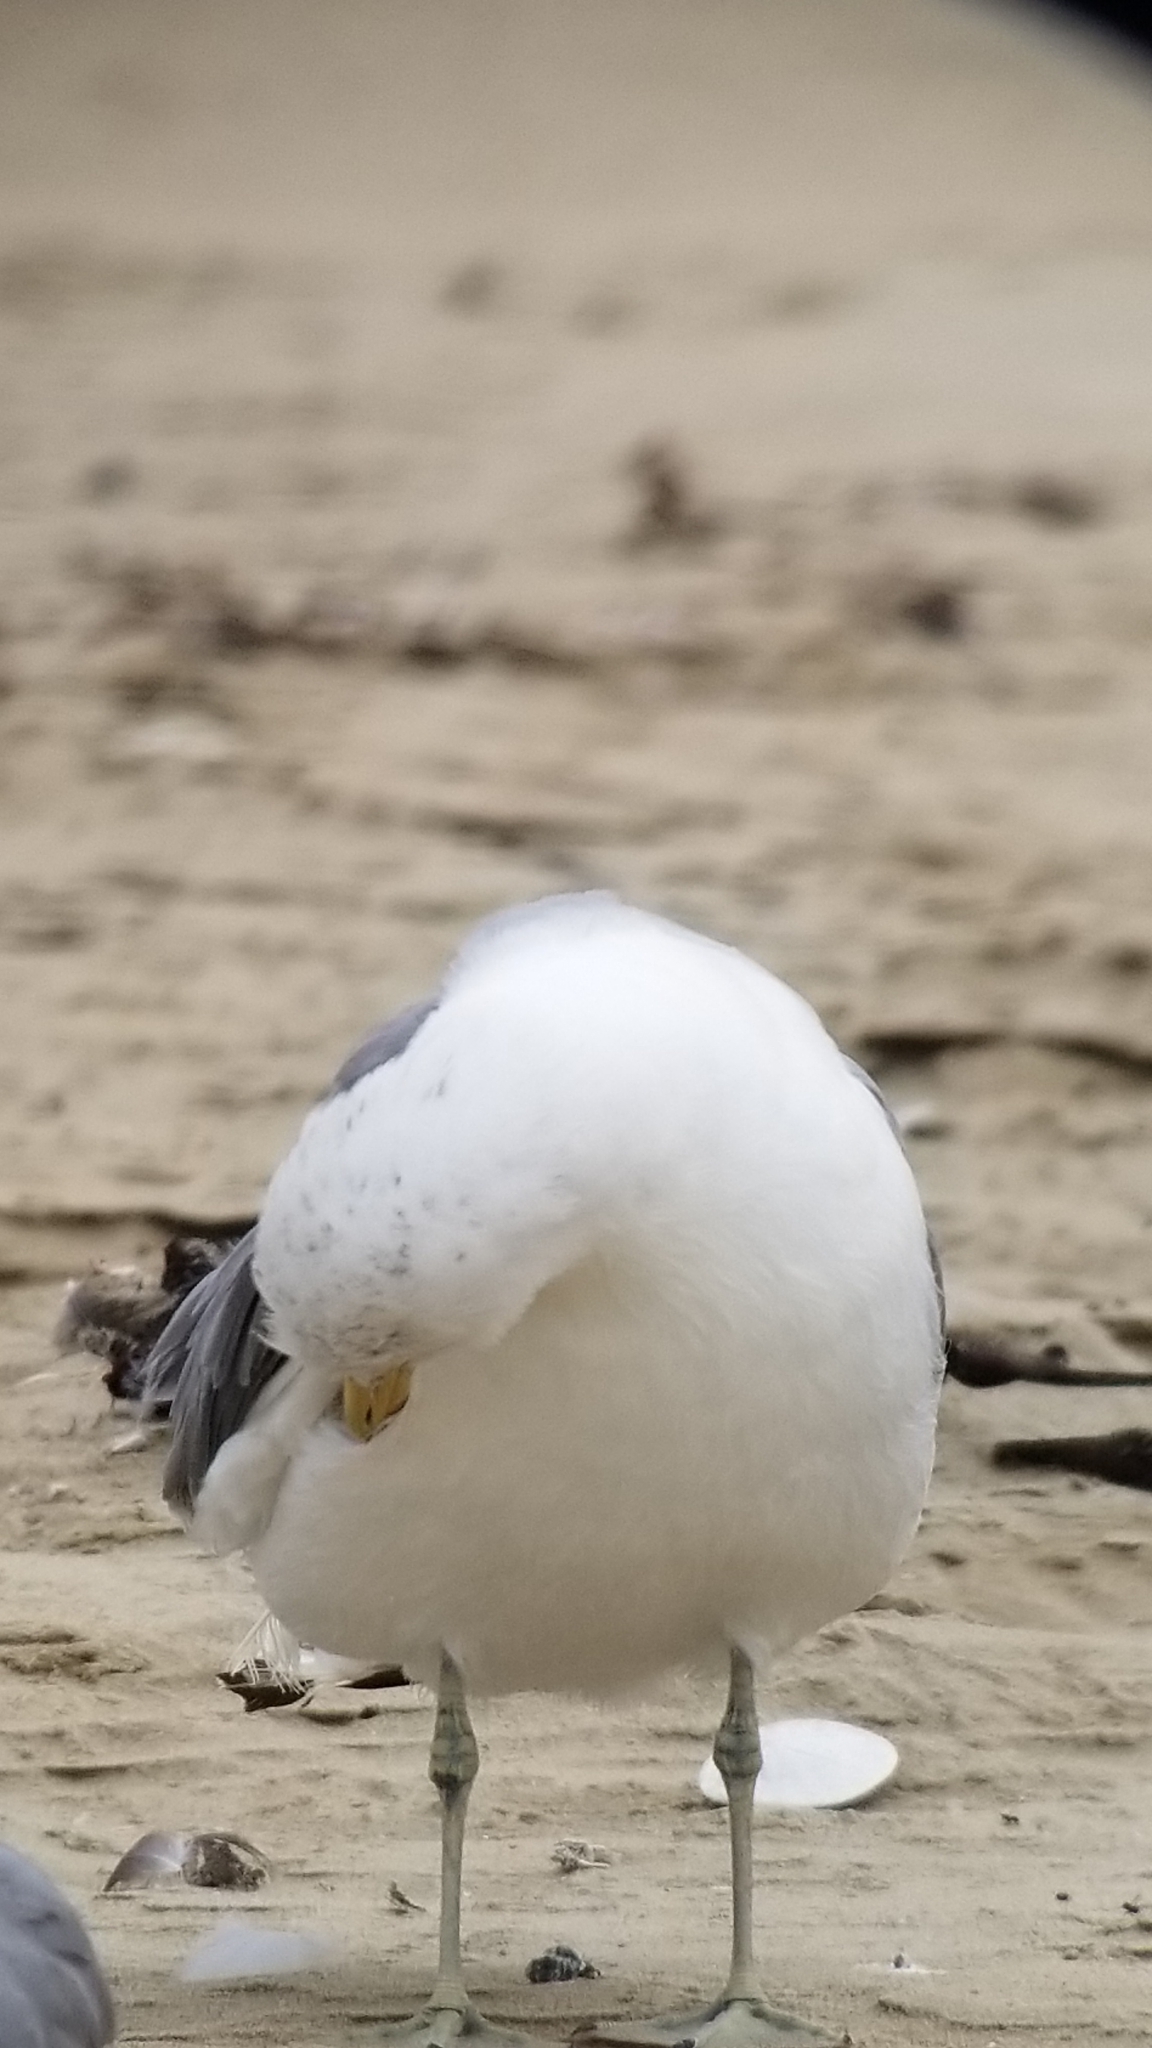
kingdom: Animalia
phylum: Chordata
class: Aves
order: Charadriiformes
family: Laridae
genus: Larus
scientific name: Larus californicus
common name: California gull
